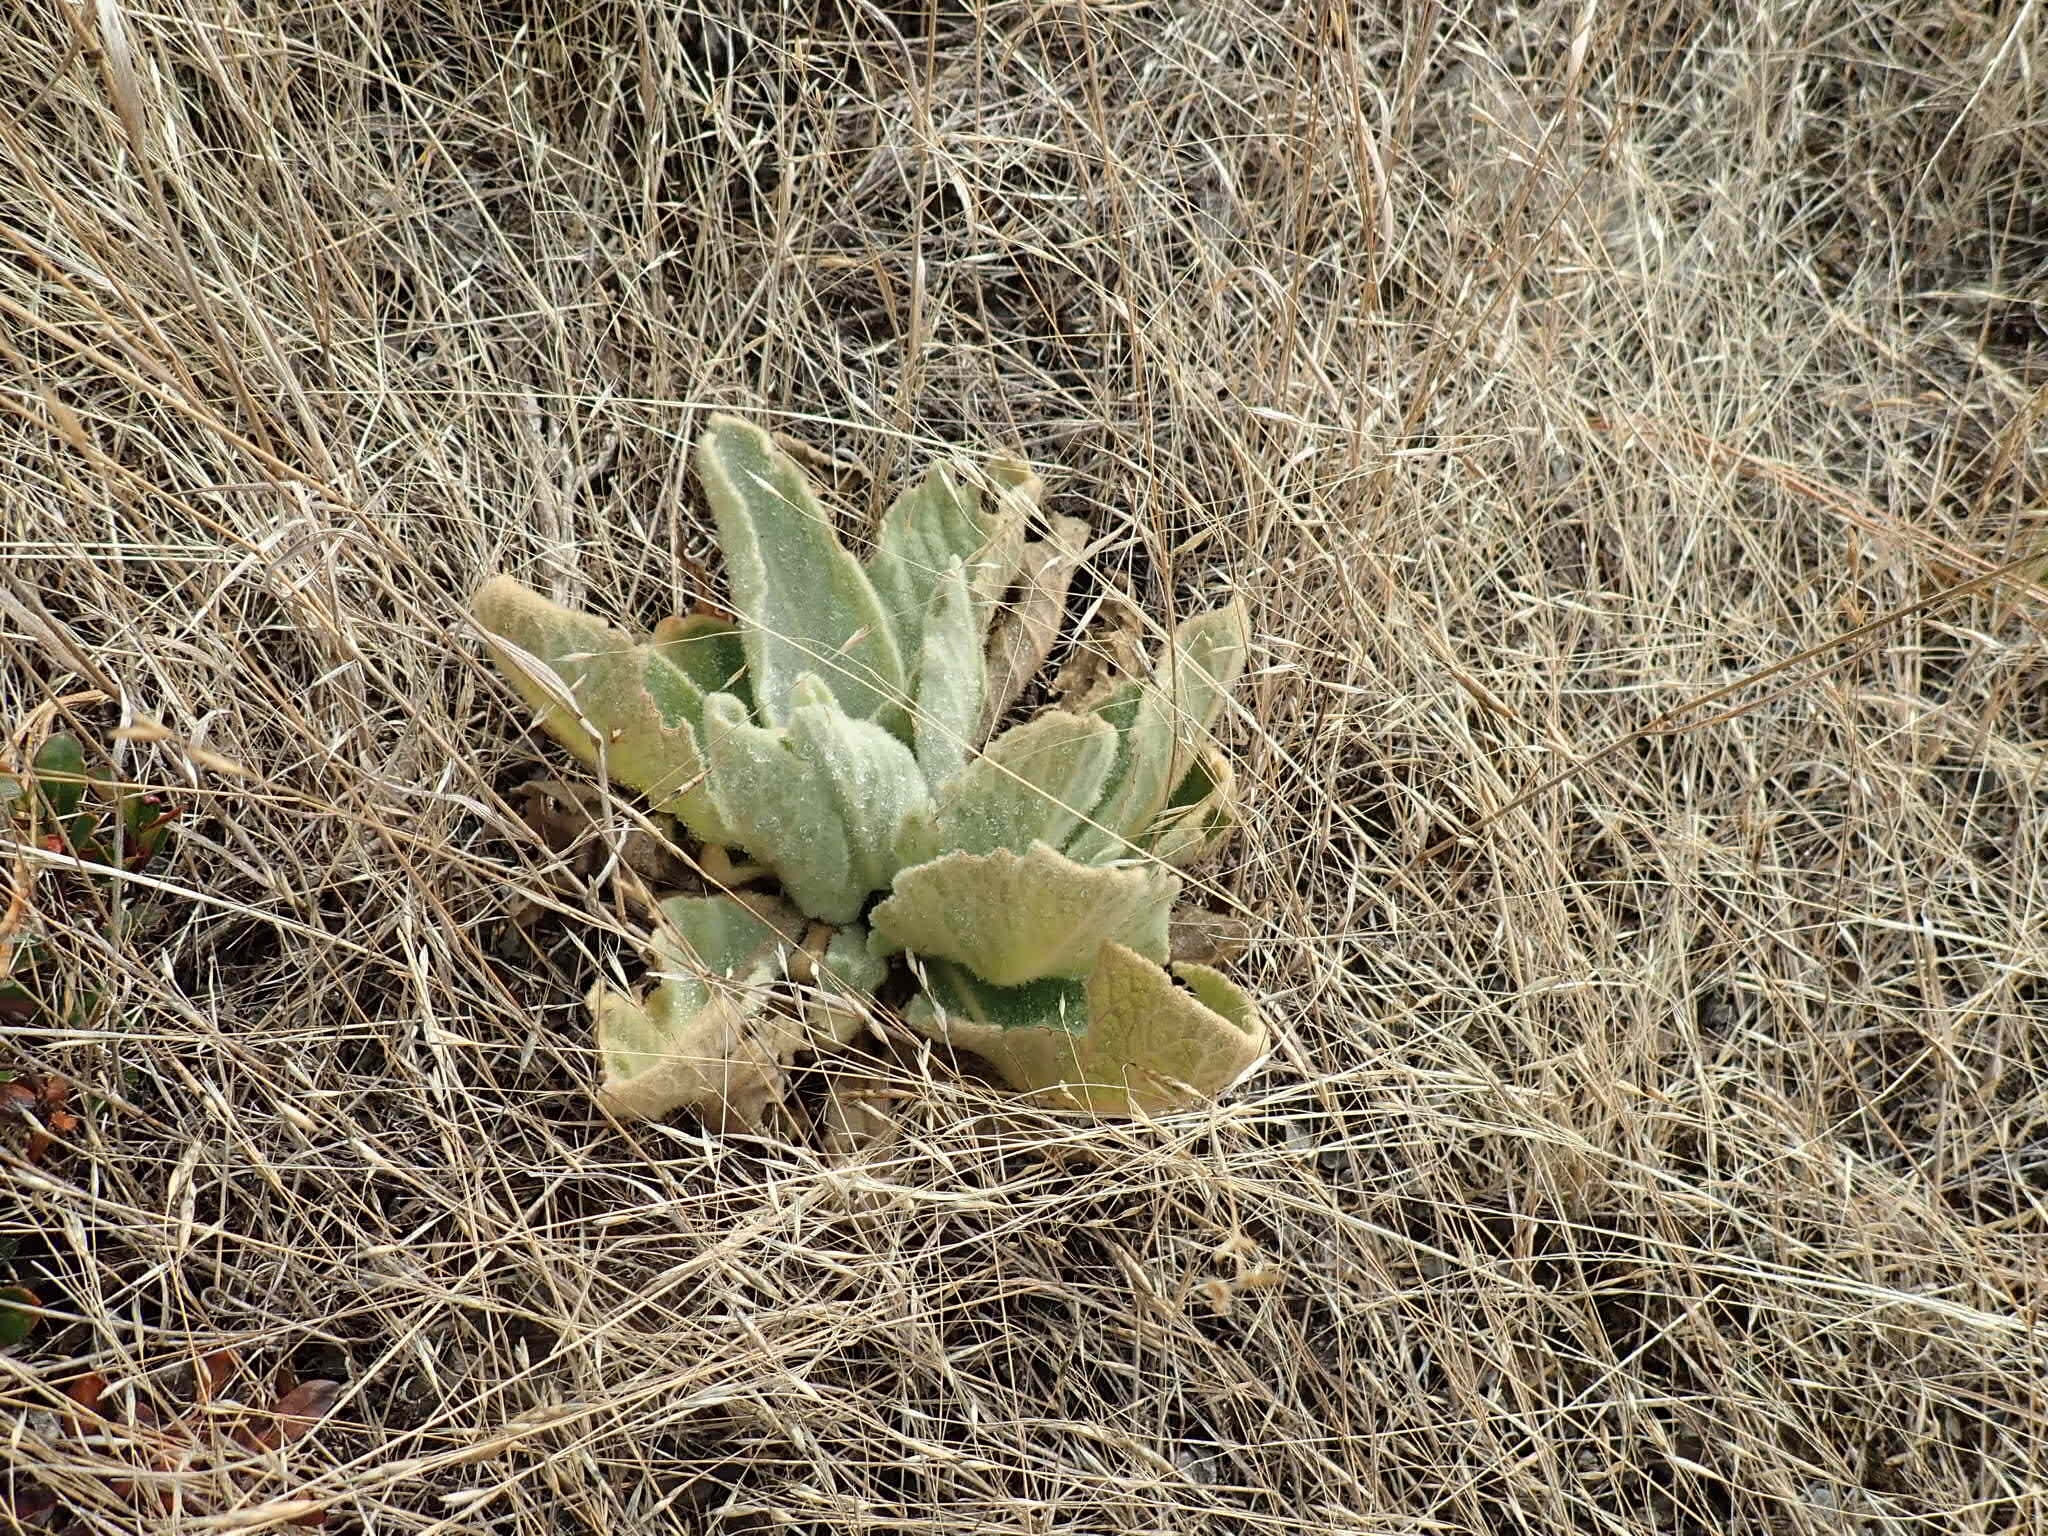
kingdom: Plantae
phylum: Tracheophyta
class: Magnoliopsida
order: Lamiales
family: Scrophulariaceae
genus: Verbascum
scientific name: Verbascum thapsus
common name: Common mullein
